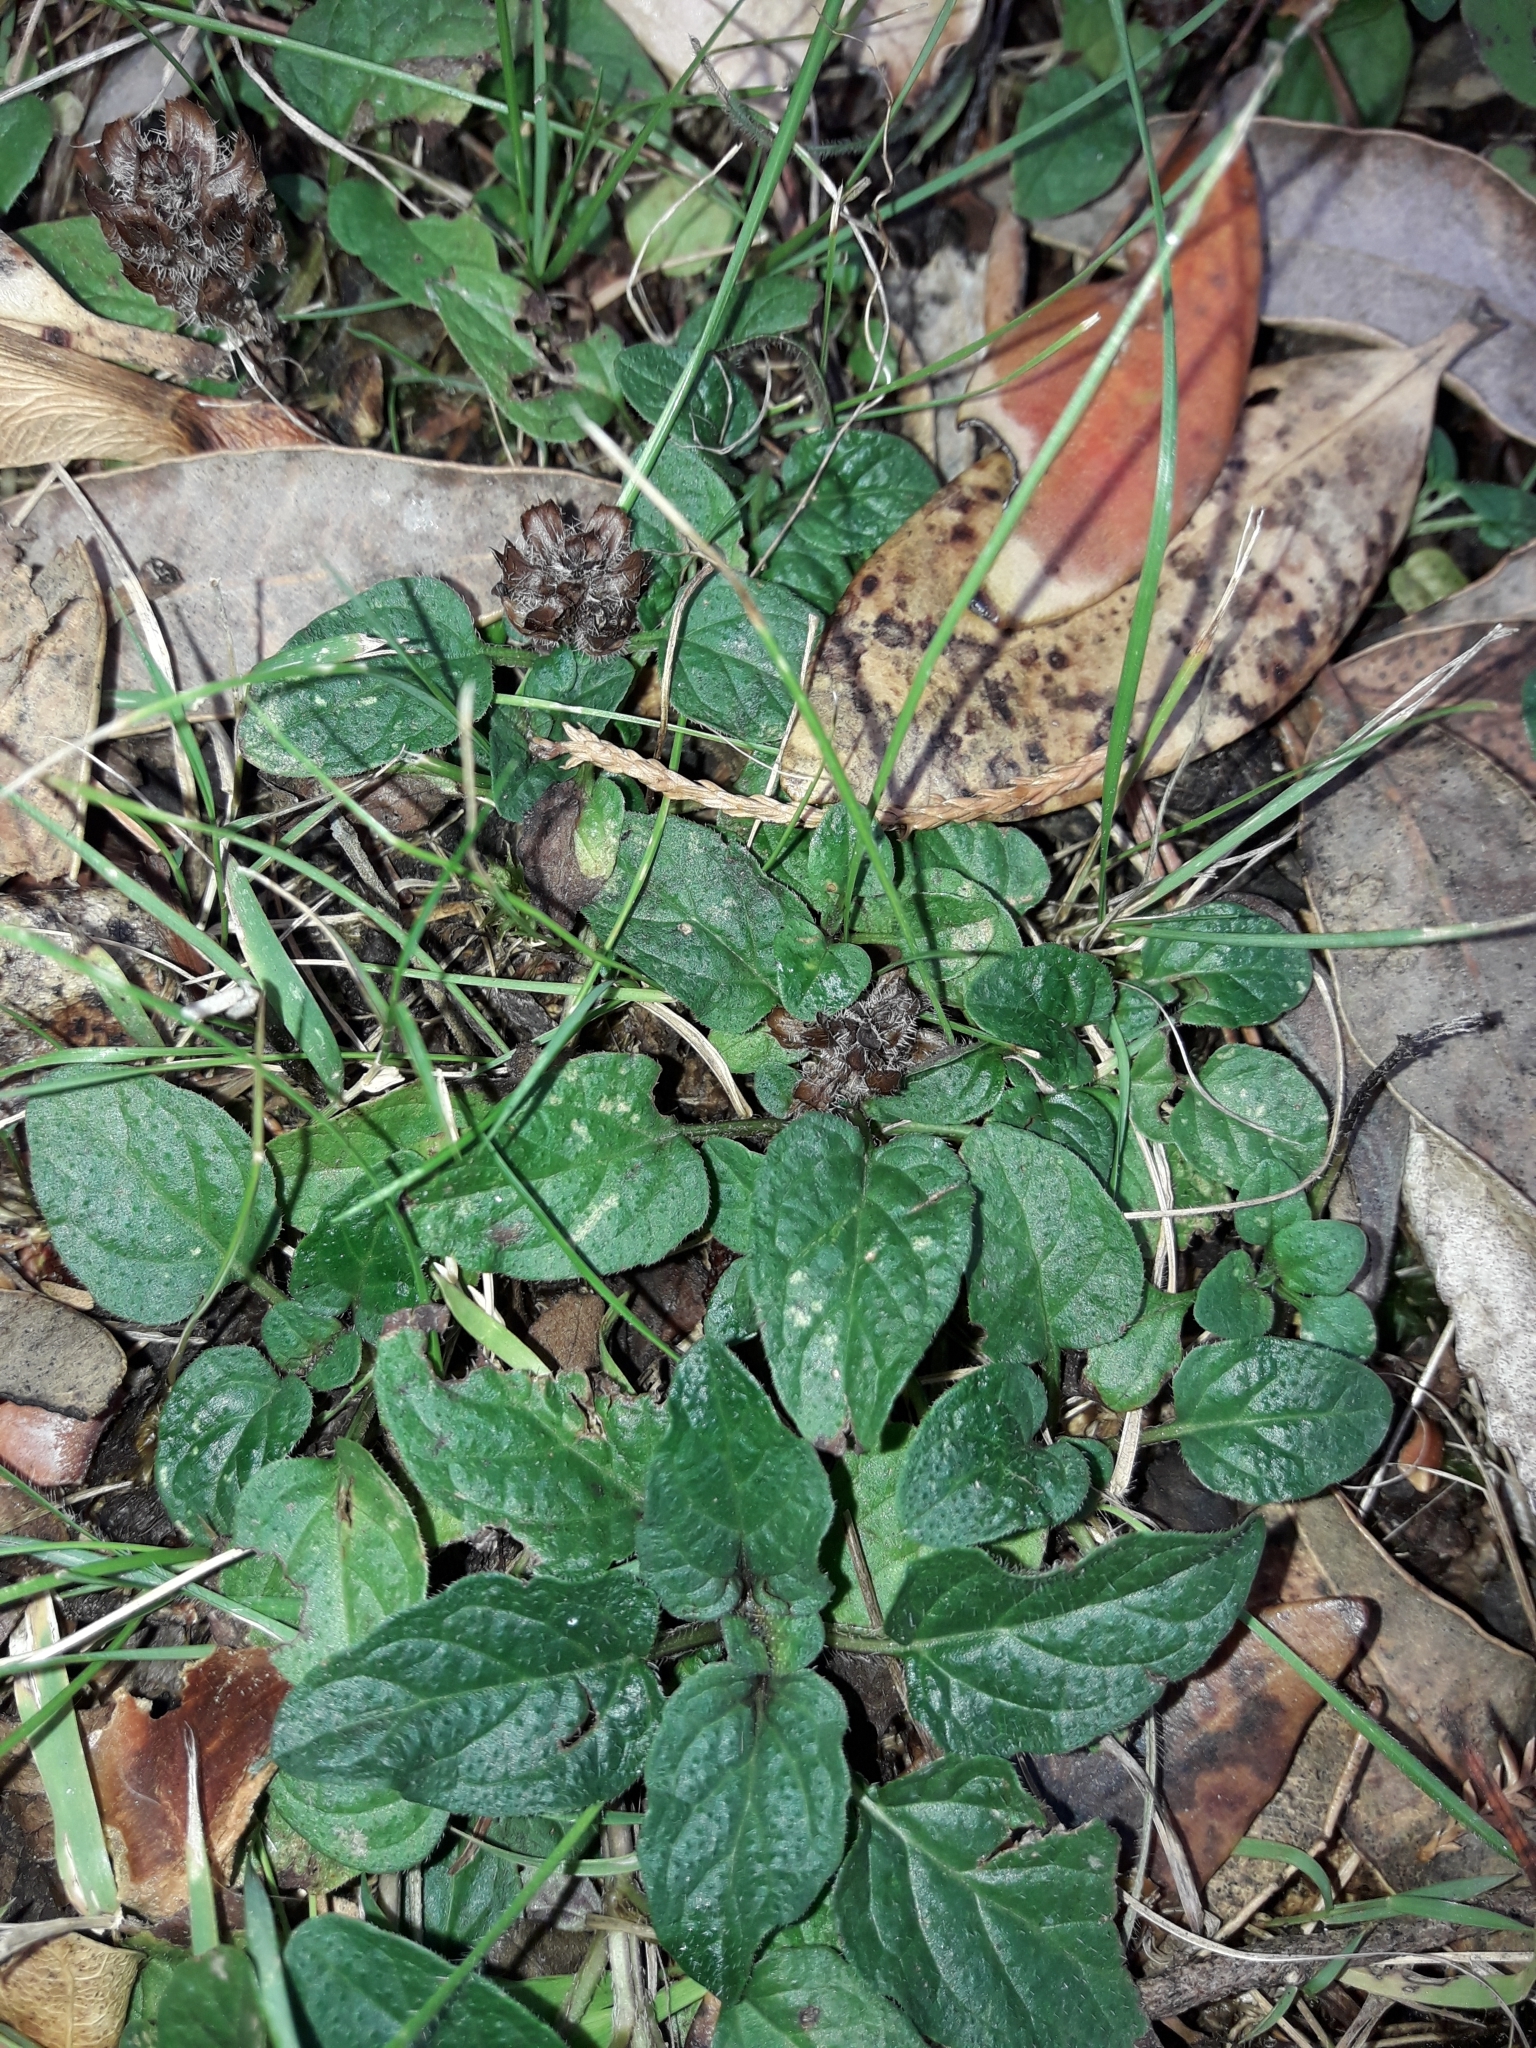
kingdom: Plantae
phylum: Tracheophyta
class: Magnoliopsida
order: Lamiales
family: Lamiaceae
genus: Prunella
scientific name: Prunella vulgaris
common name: Heal-all
